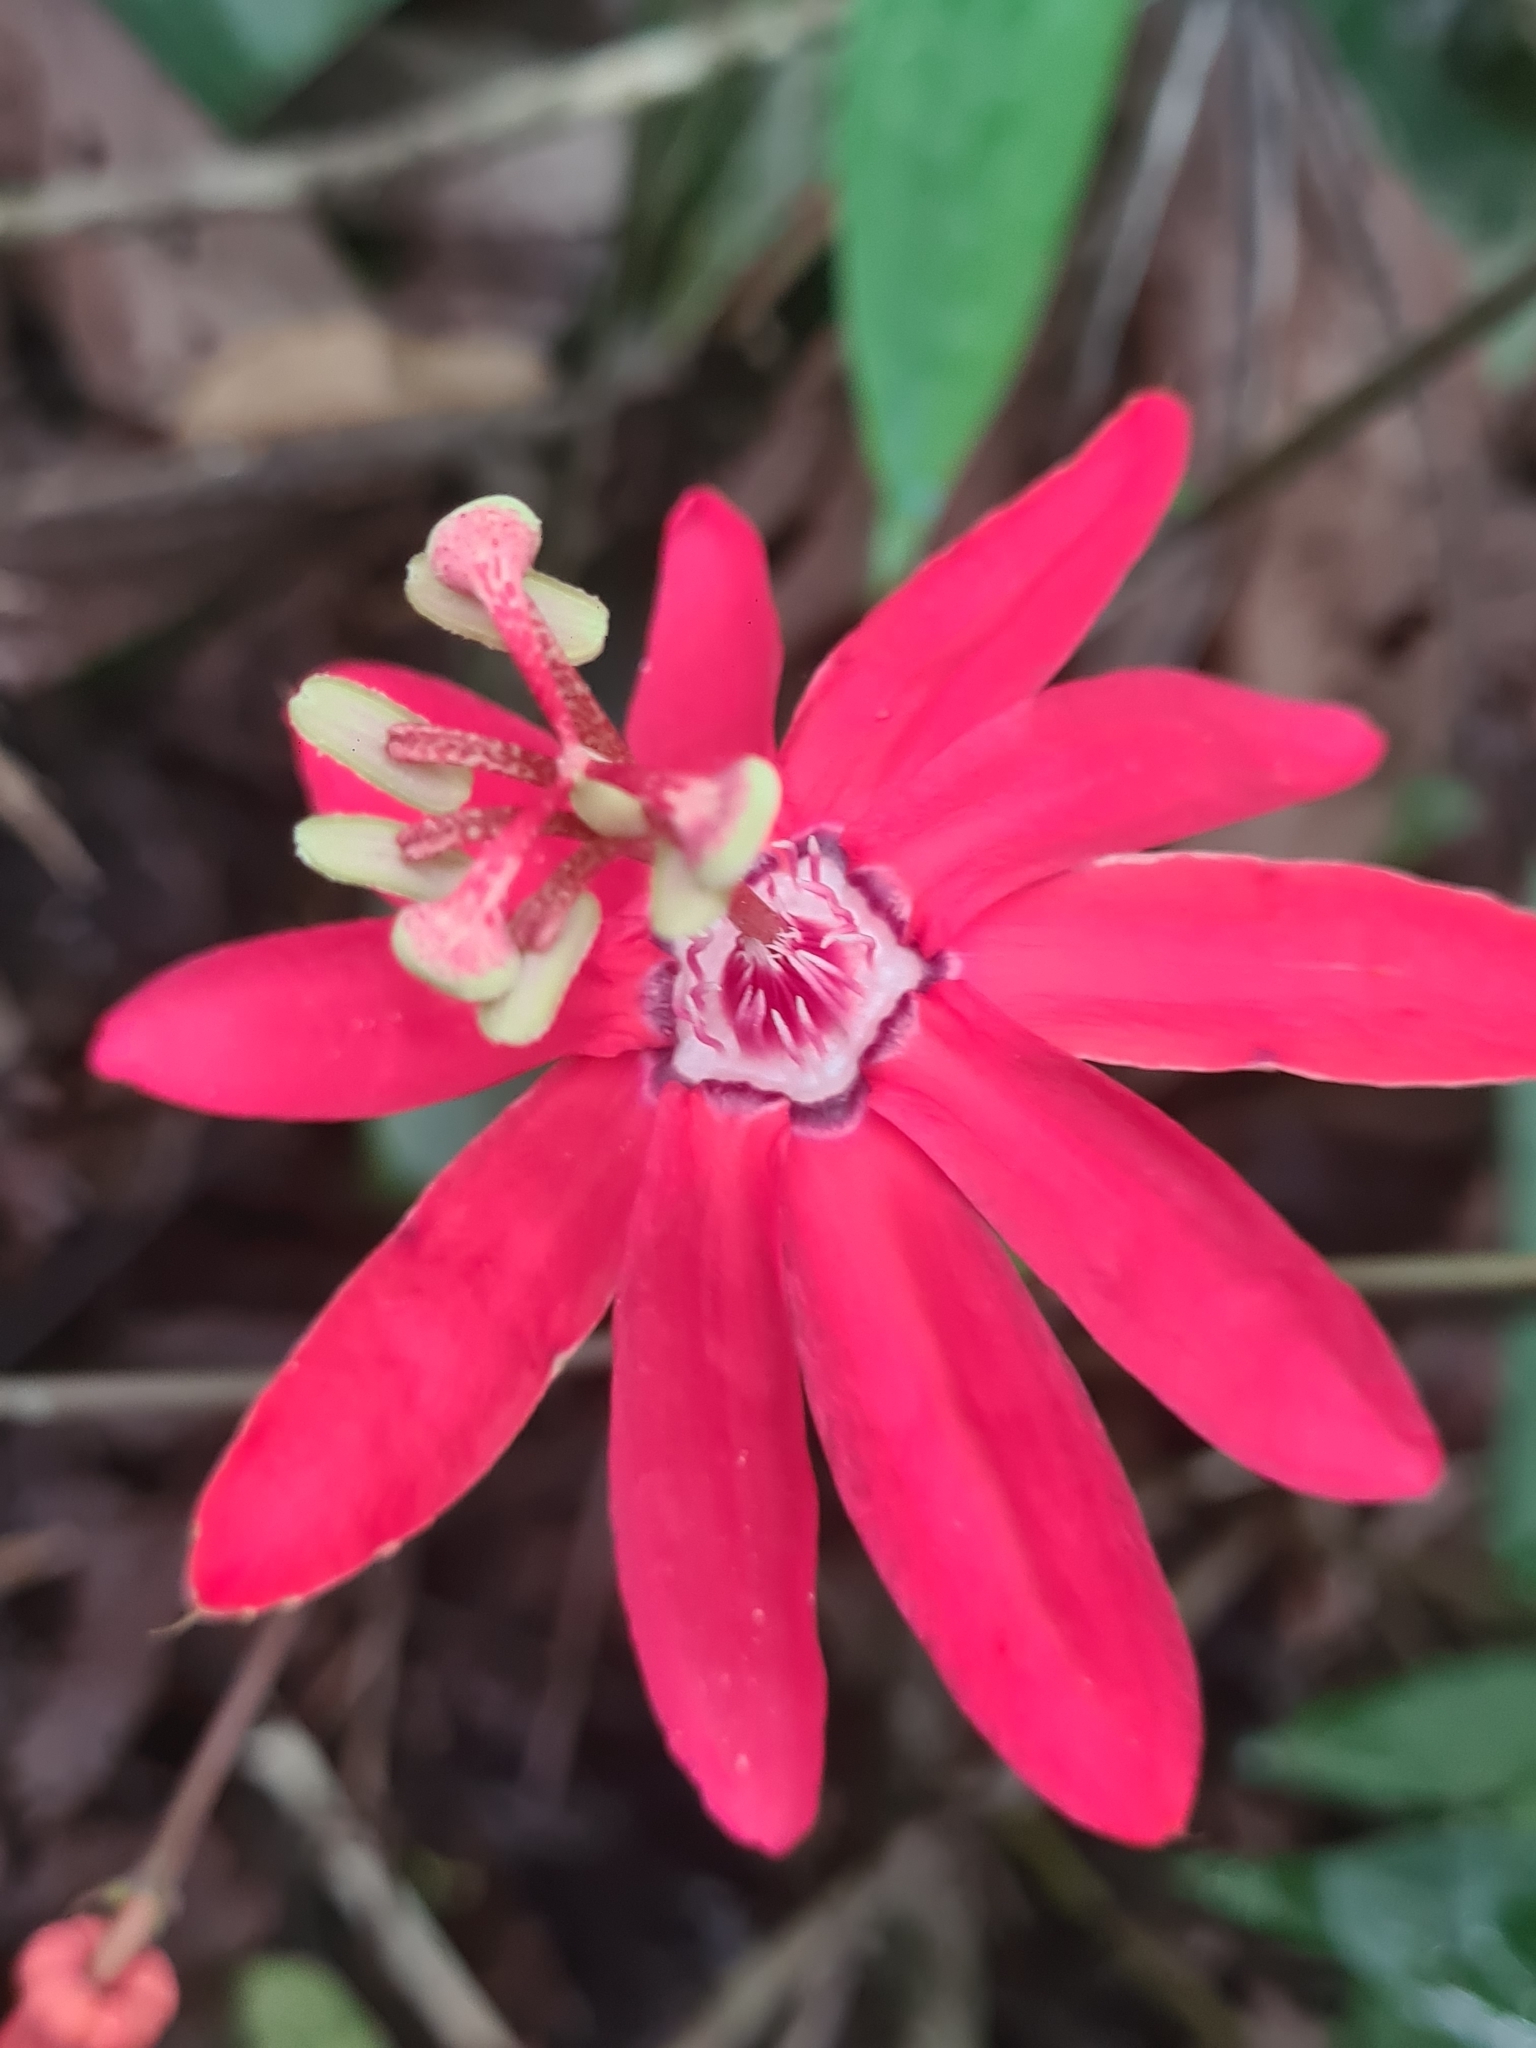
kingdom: Plantae
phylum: Tracheophyta
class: Magnoliopsida
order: Malpighiales
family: Passifloraceae
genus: Passiflora
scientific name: Passiflora glandulosa
